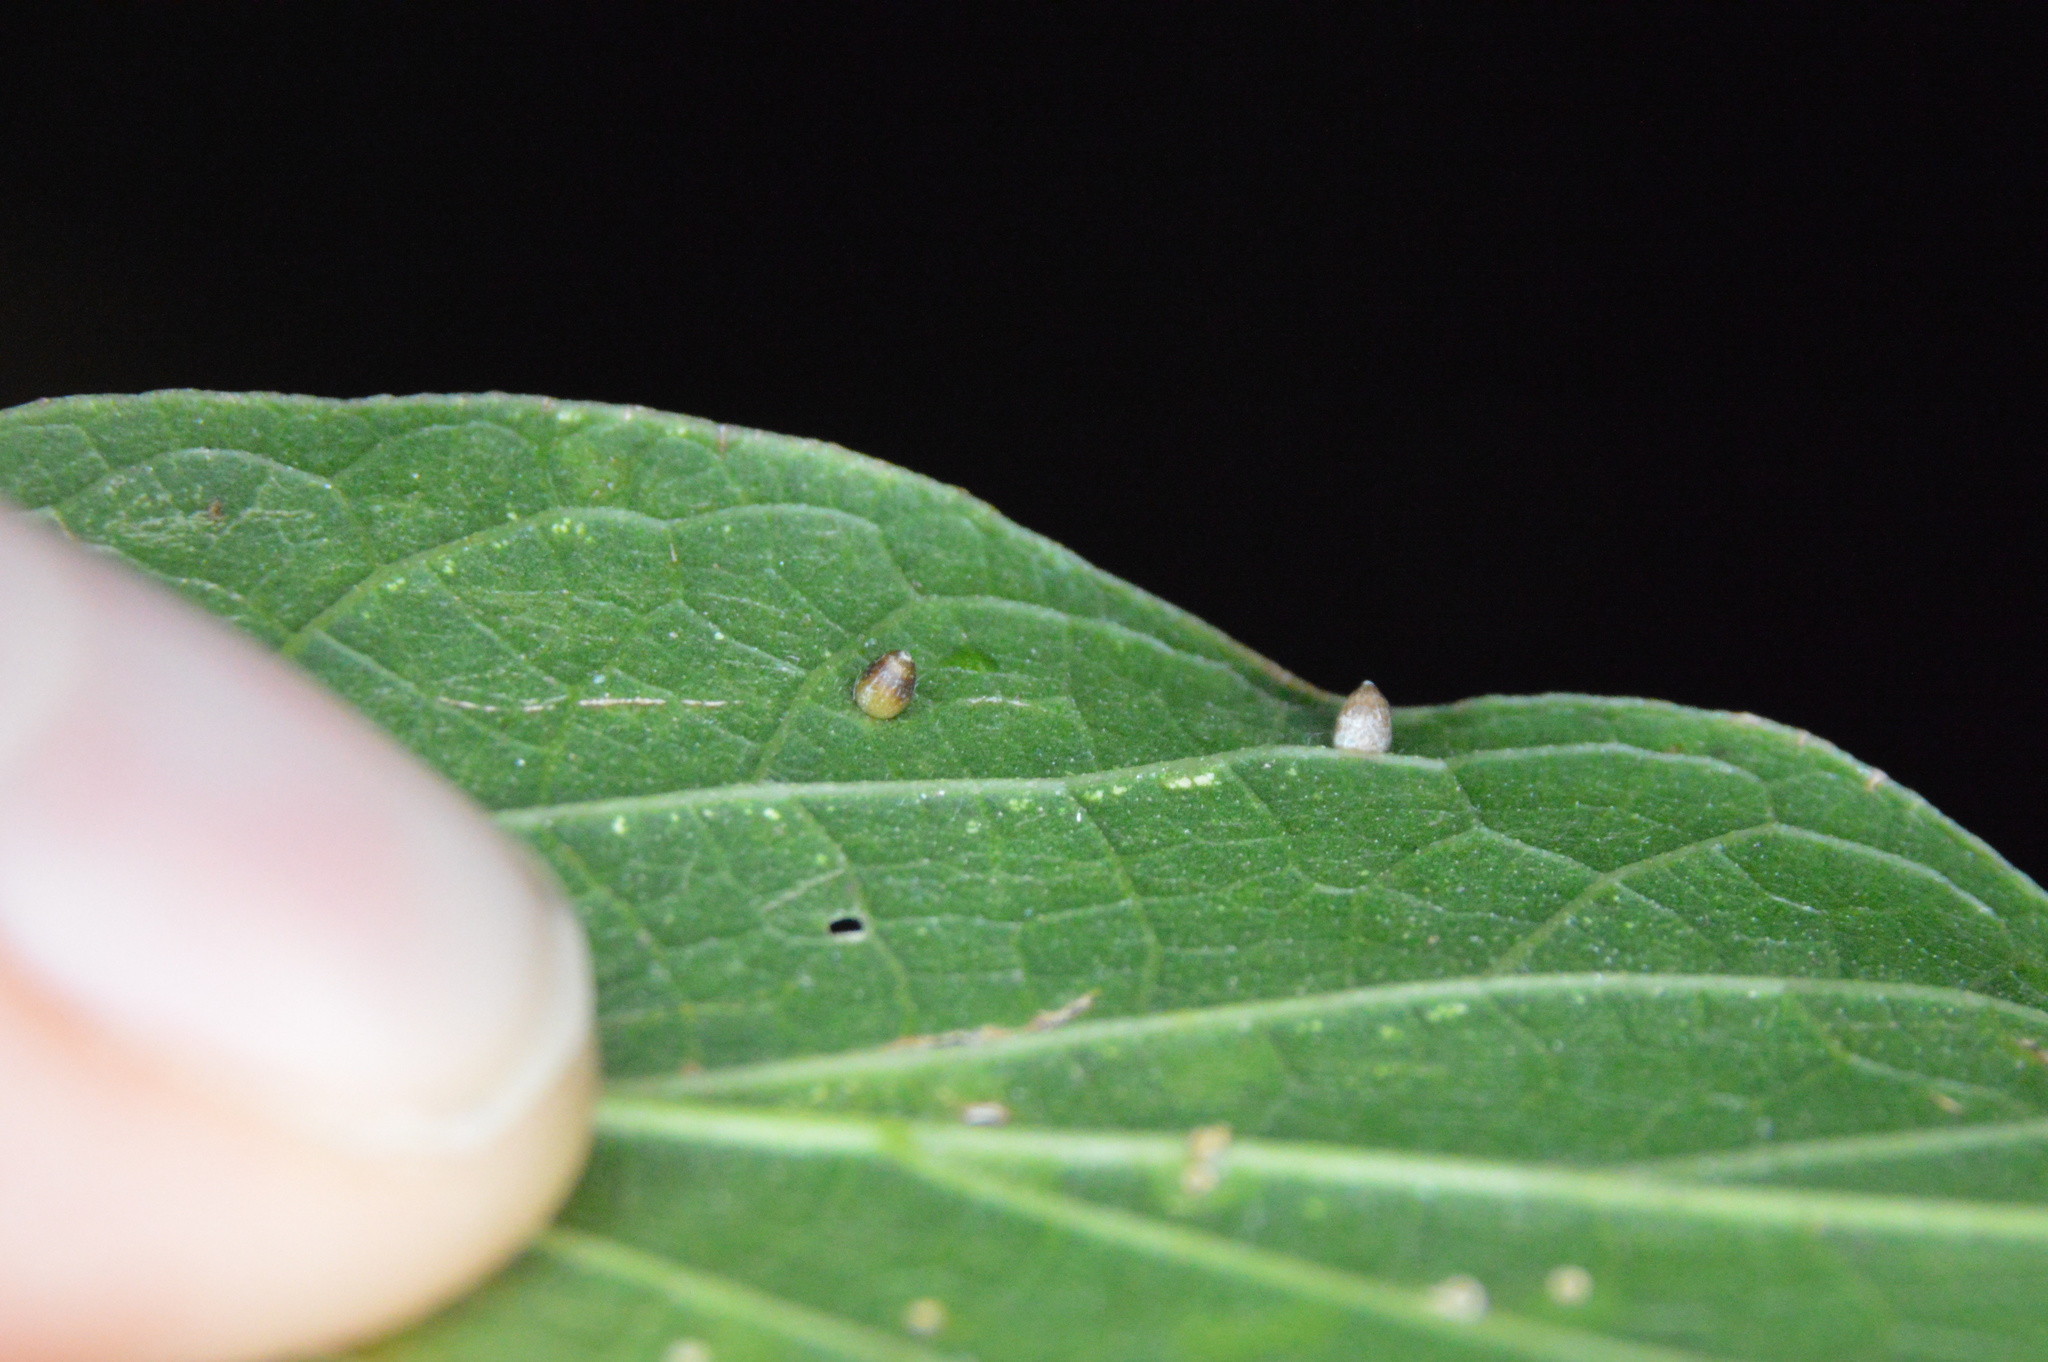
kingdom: Animalia
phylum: Arthropoda
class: Insecta
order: Diptera
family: Cecidomyiidae
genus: Celticecis
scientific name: Celticecis cupiformis
